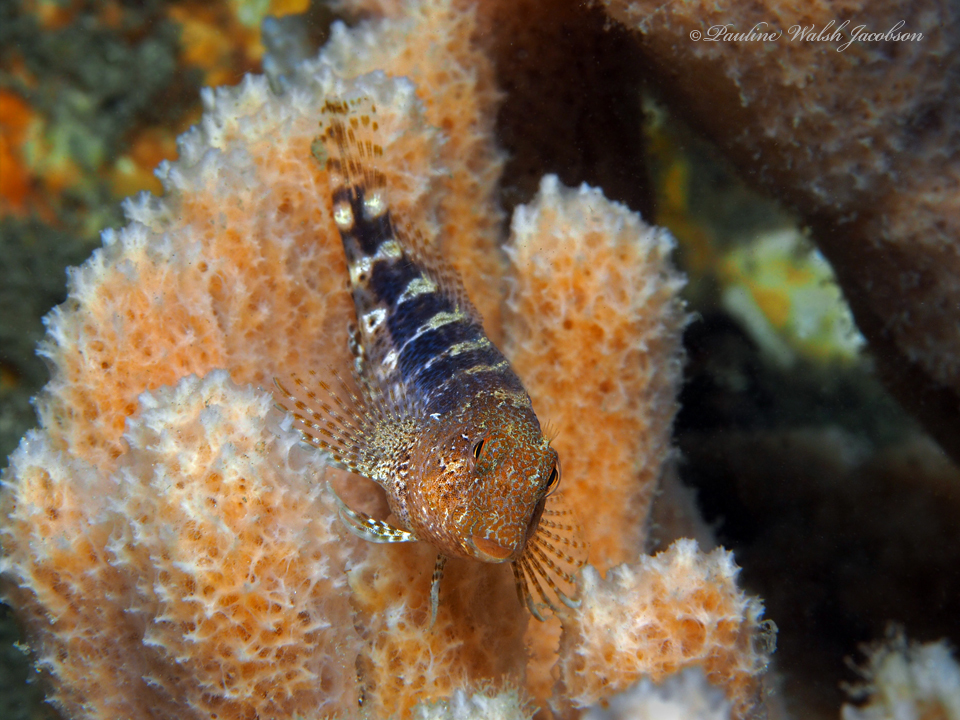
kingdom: Animalia
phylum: Chordata
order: Perciformes
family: Blenniidae
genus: Hypleurochilus
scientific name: Hypleurochilus bermudensis
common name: Barred blenny
